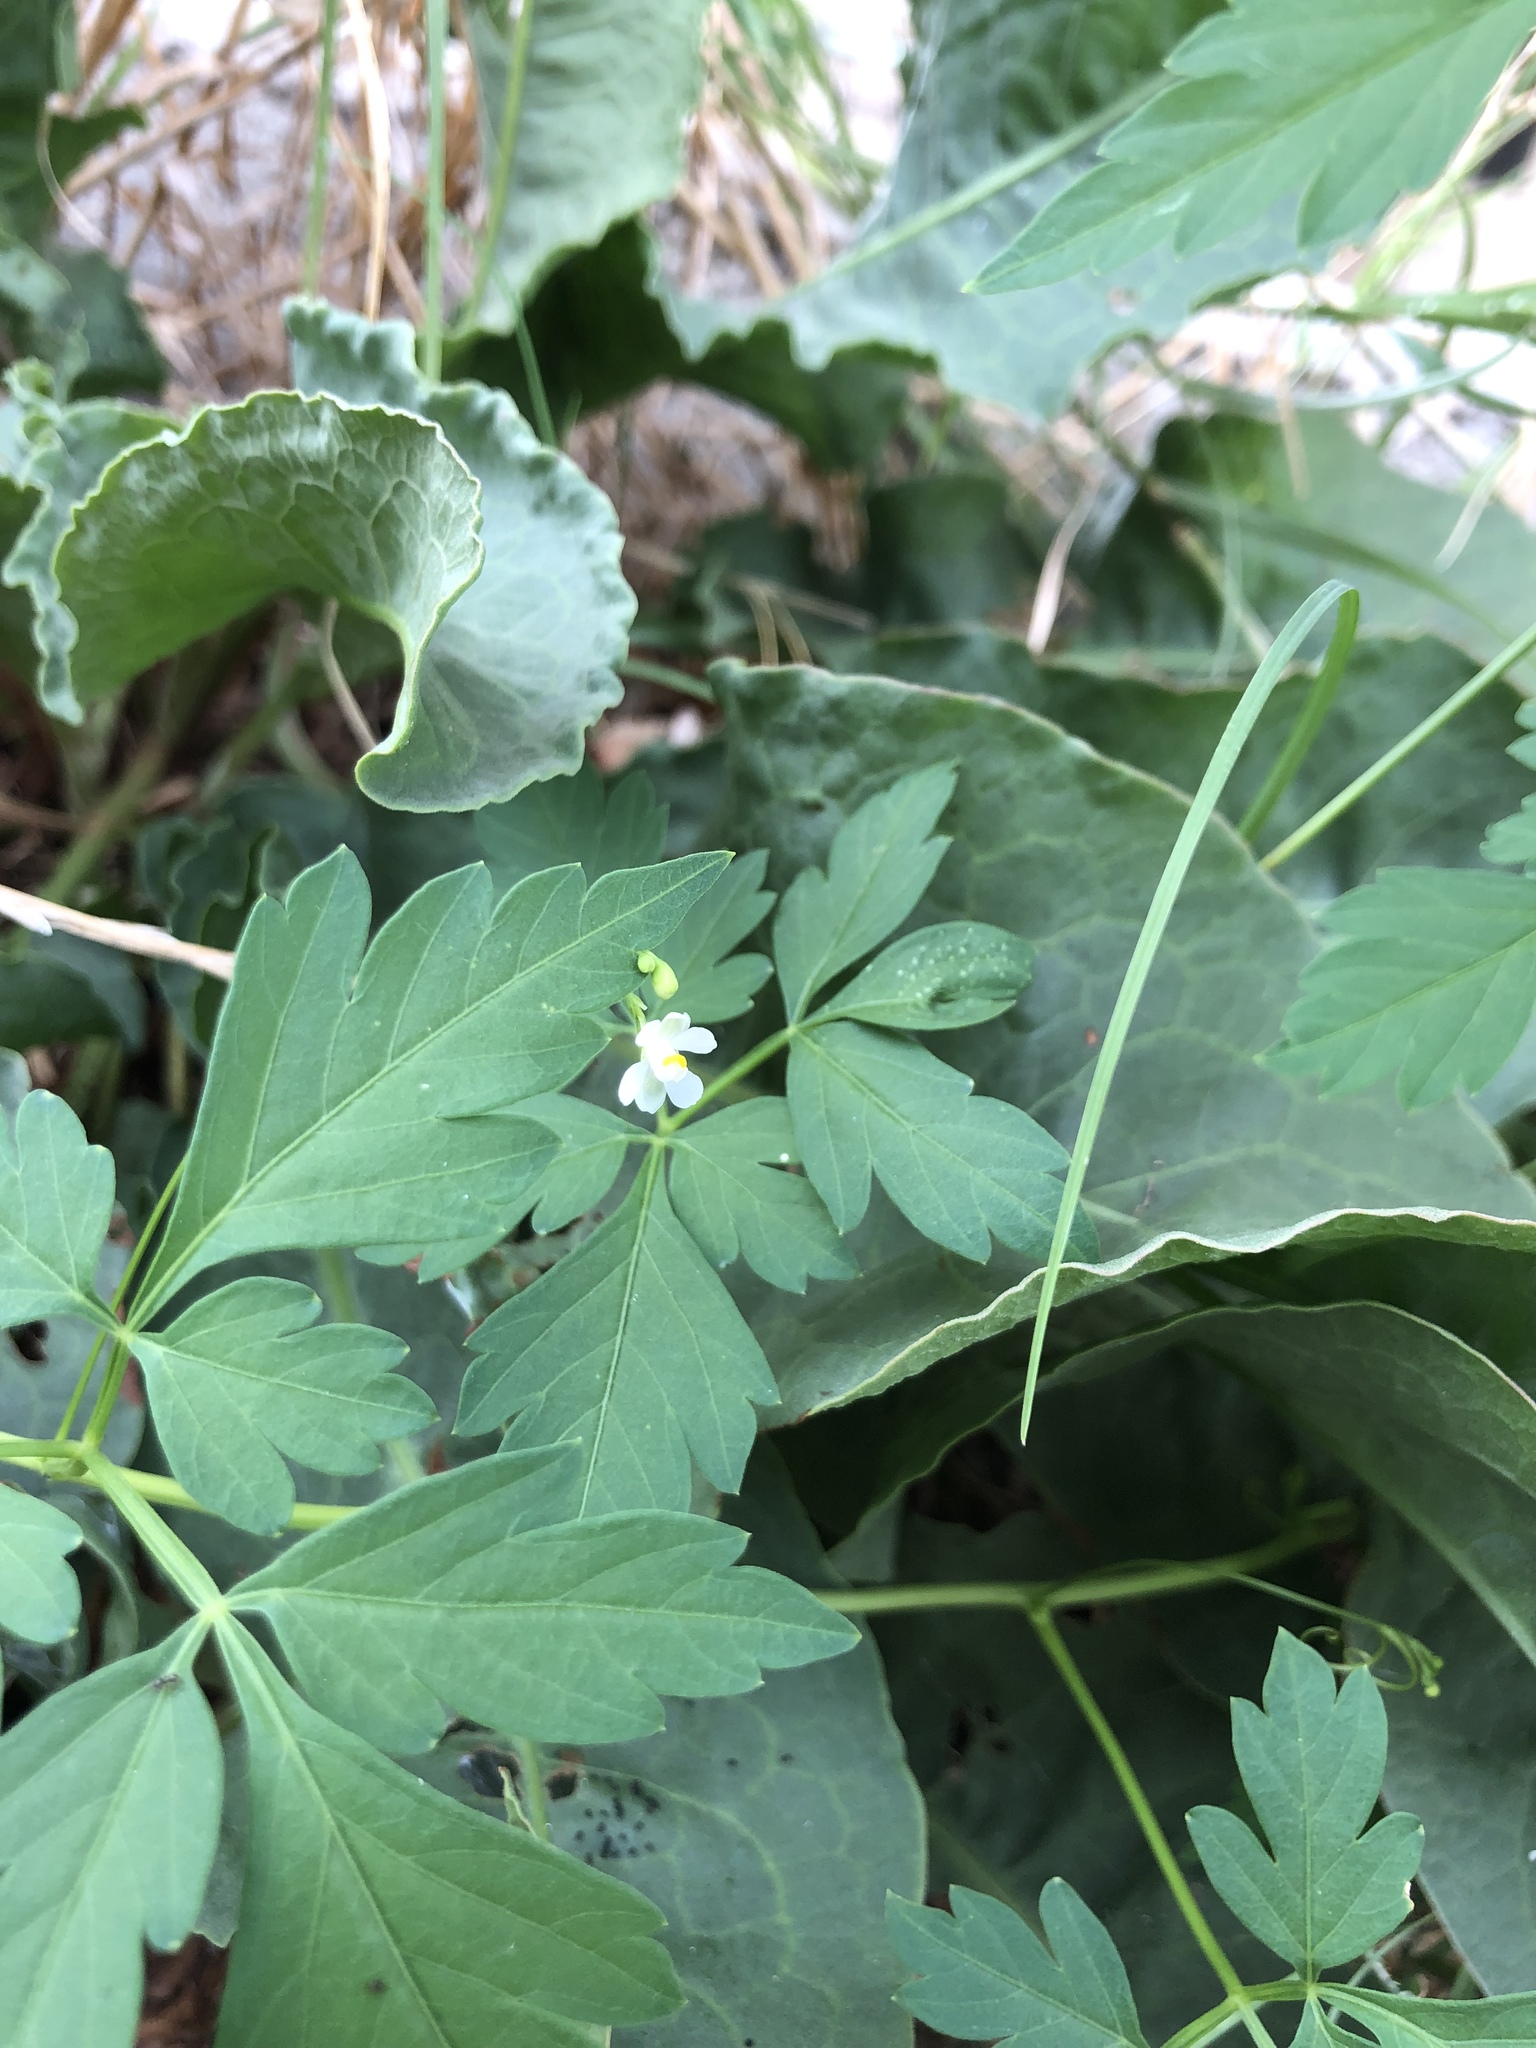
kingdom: Plantae
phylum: Tracheophyta
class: Magnoliopsida
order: Sapindales
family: Sapindaceae
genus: Cardiospermum
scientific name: Cardiospermum halicacabum
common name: Balloon vine
